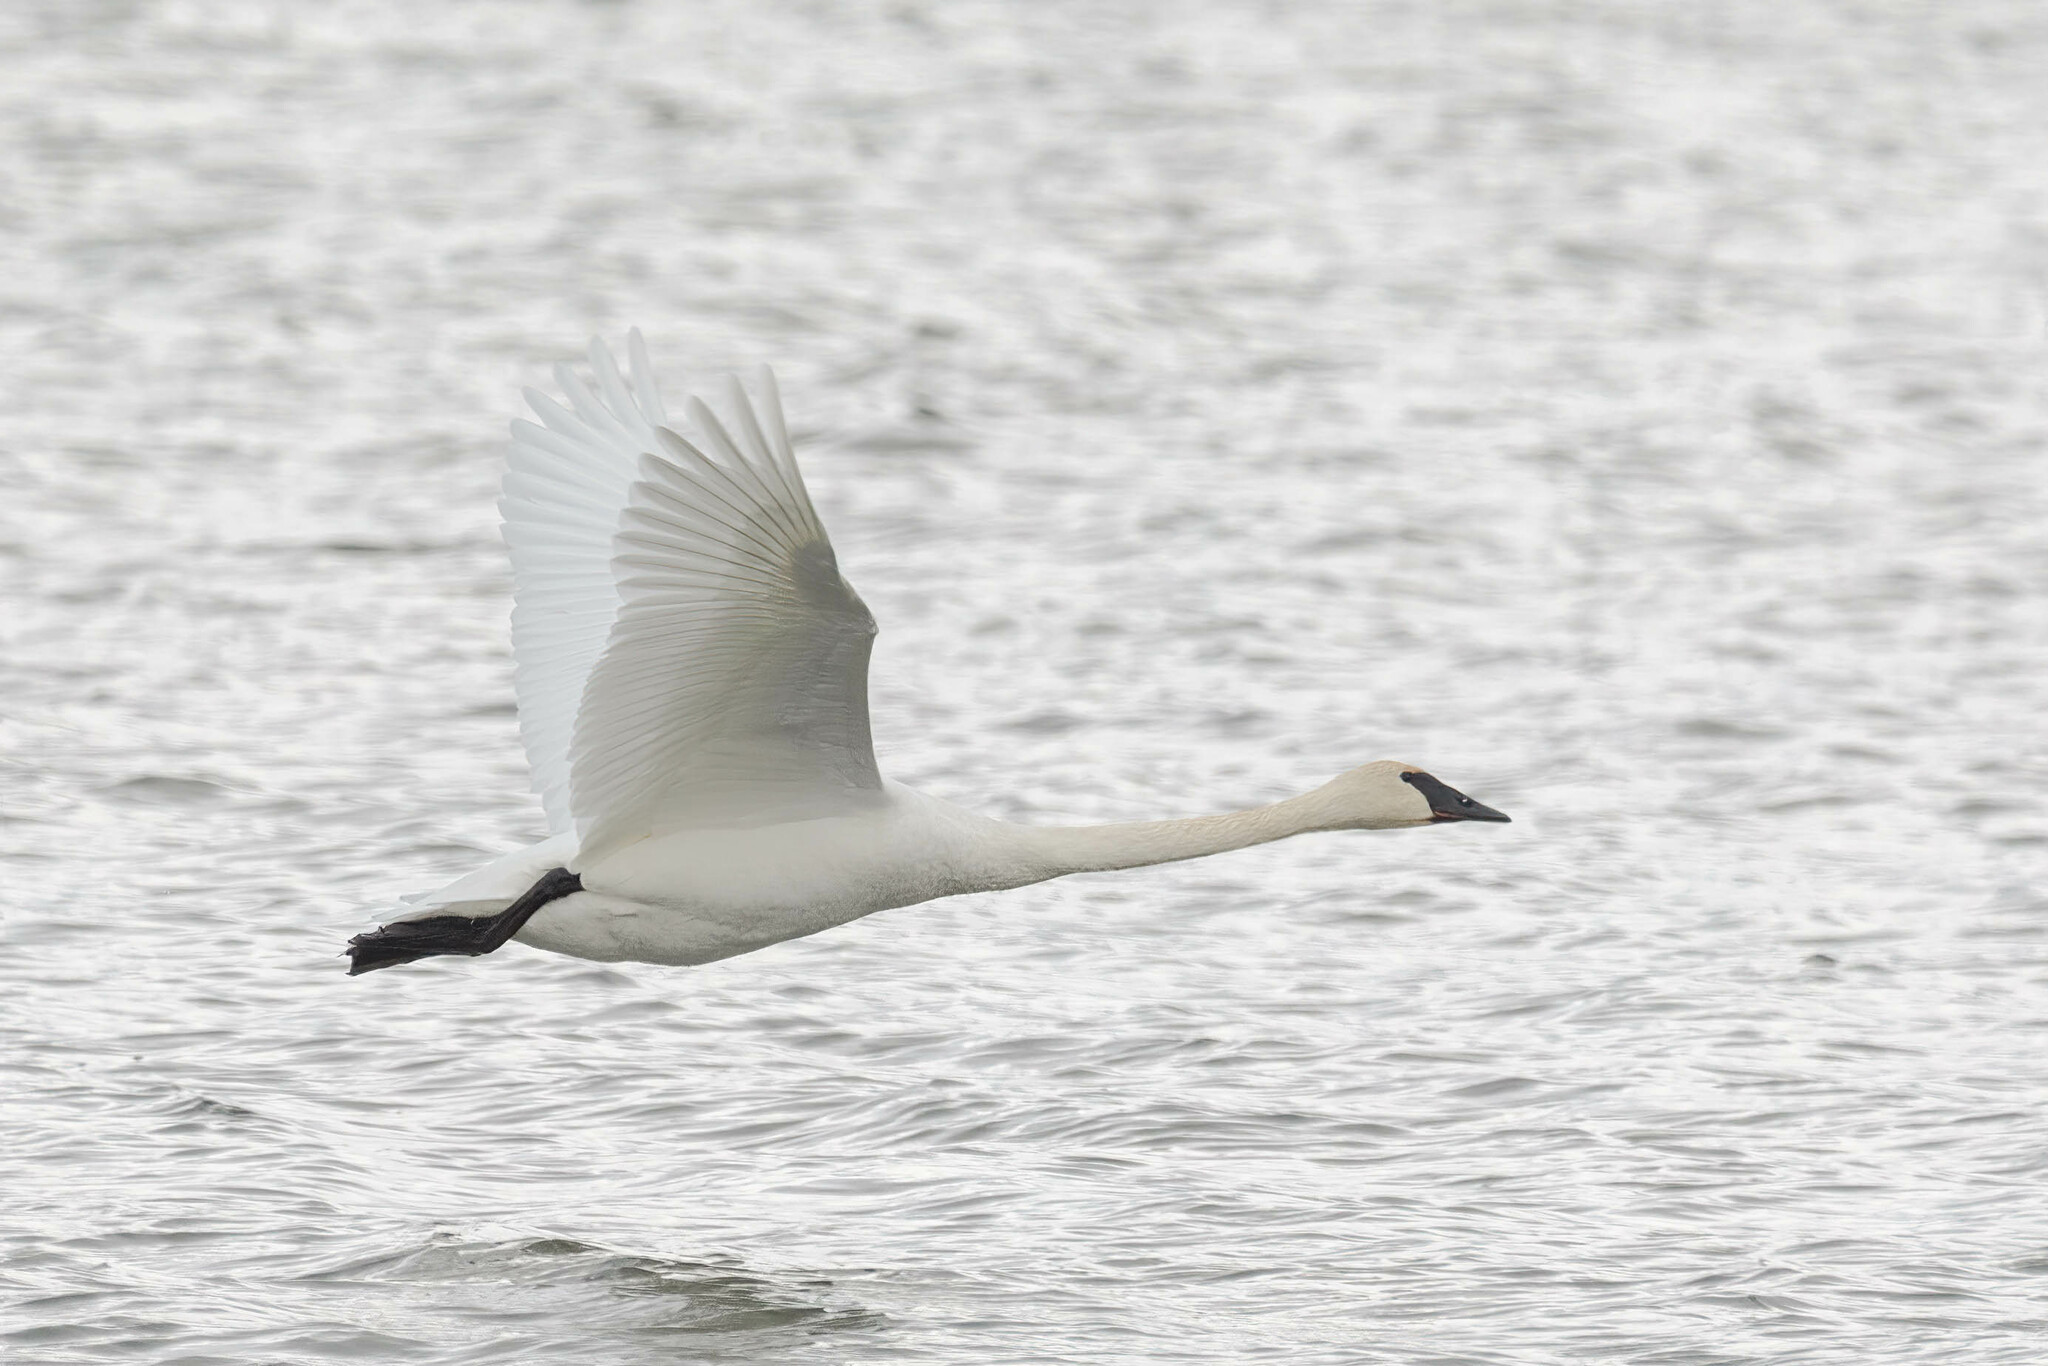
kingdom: Animalia
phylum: Chordata
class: Aves
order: Anseriformes
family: Anatidae
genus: Cygnus
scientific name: Cygnus buccinator
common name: Trumpeter swan
